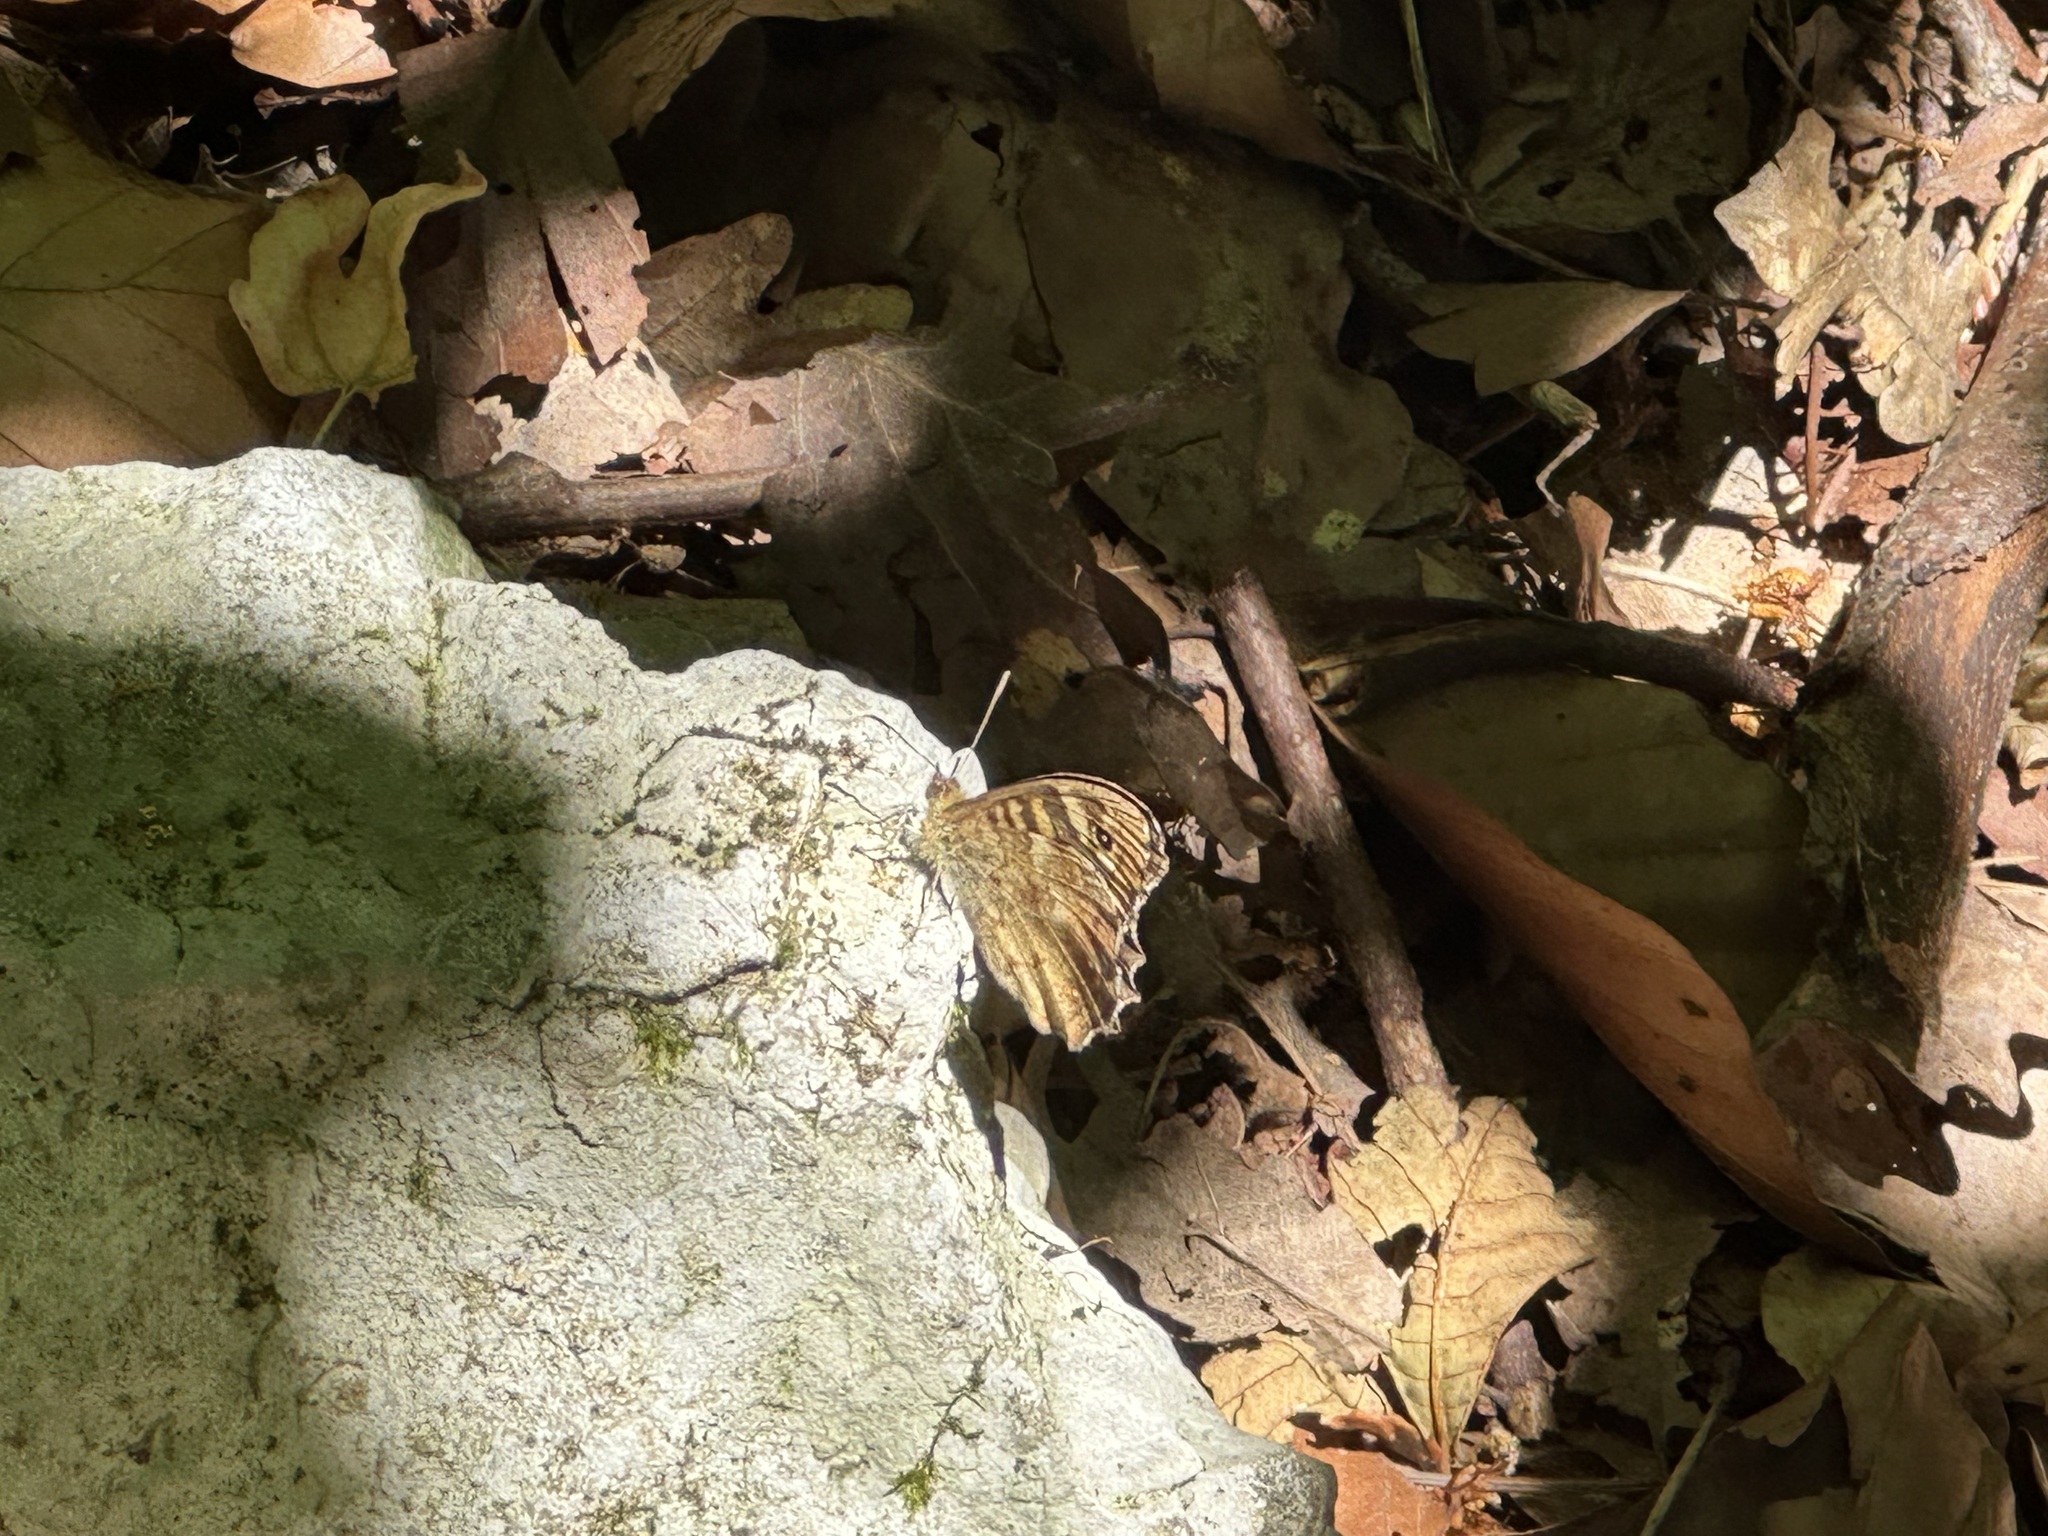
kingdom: Animalia
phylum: Arthropoda
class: Insecta
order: Lepidoptera
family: Nymphalidae
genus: Pararge
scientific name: Pararge aegeria
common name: Speckled wood
